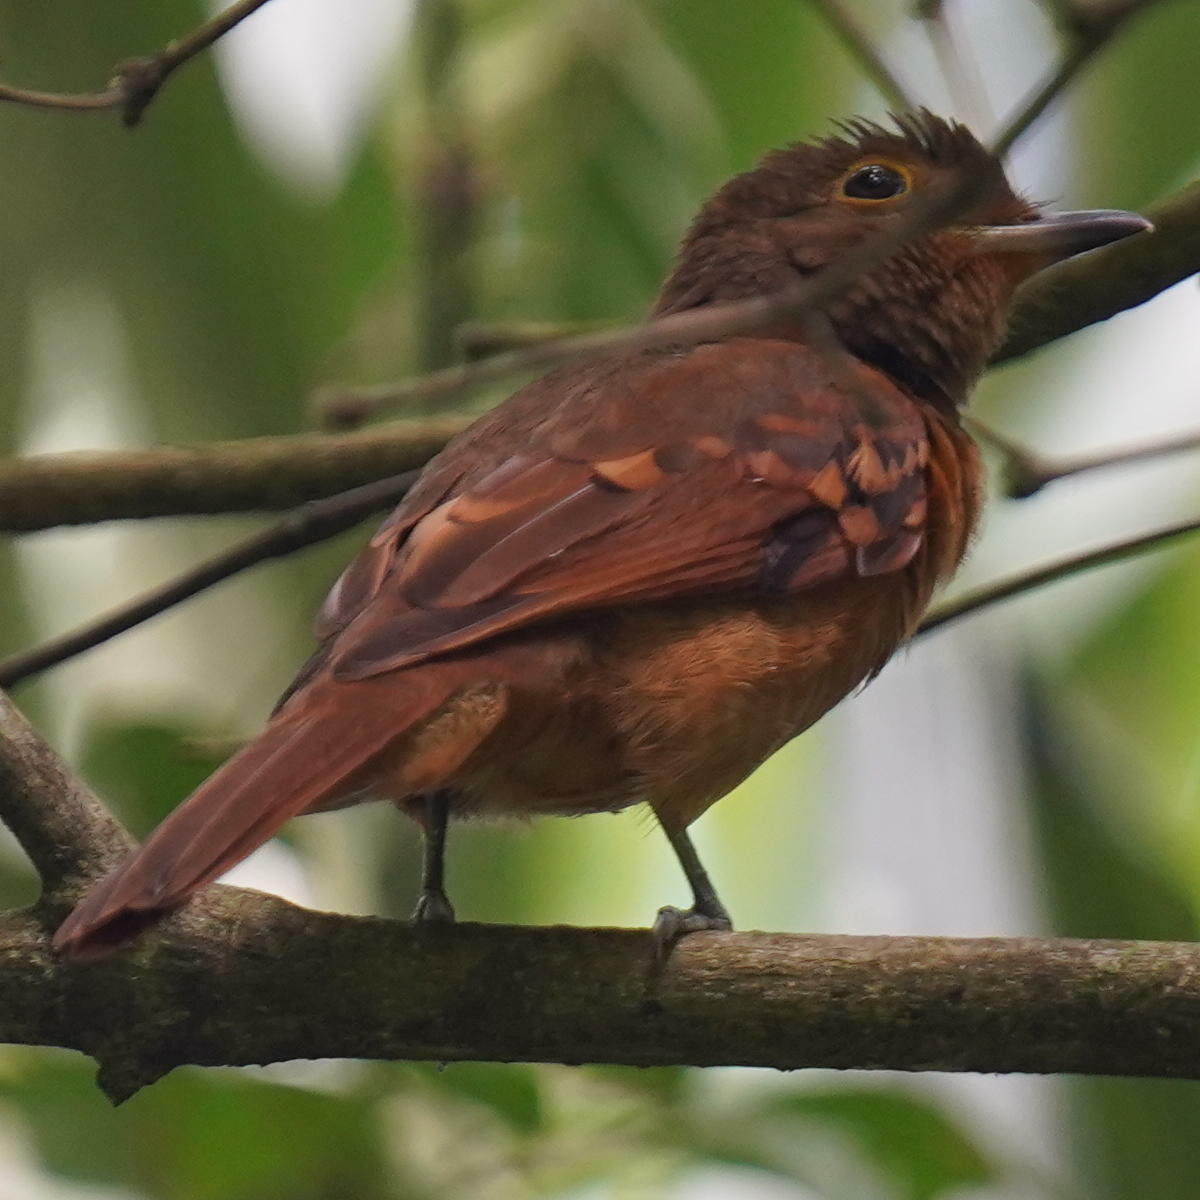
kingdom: Animalia
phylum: Chordata
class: Aves
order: Passeriformes
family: Cotingidae
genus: Laniocera
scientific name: Laniocera rufescens
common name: Speckled mourner
